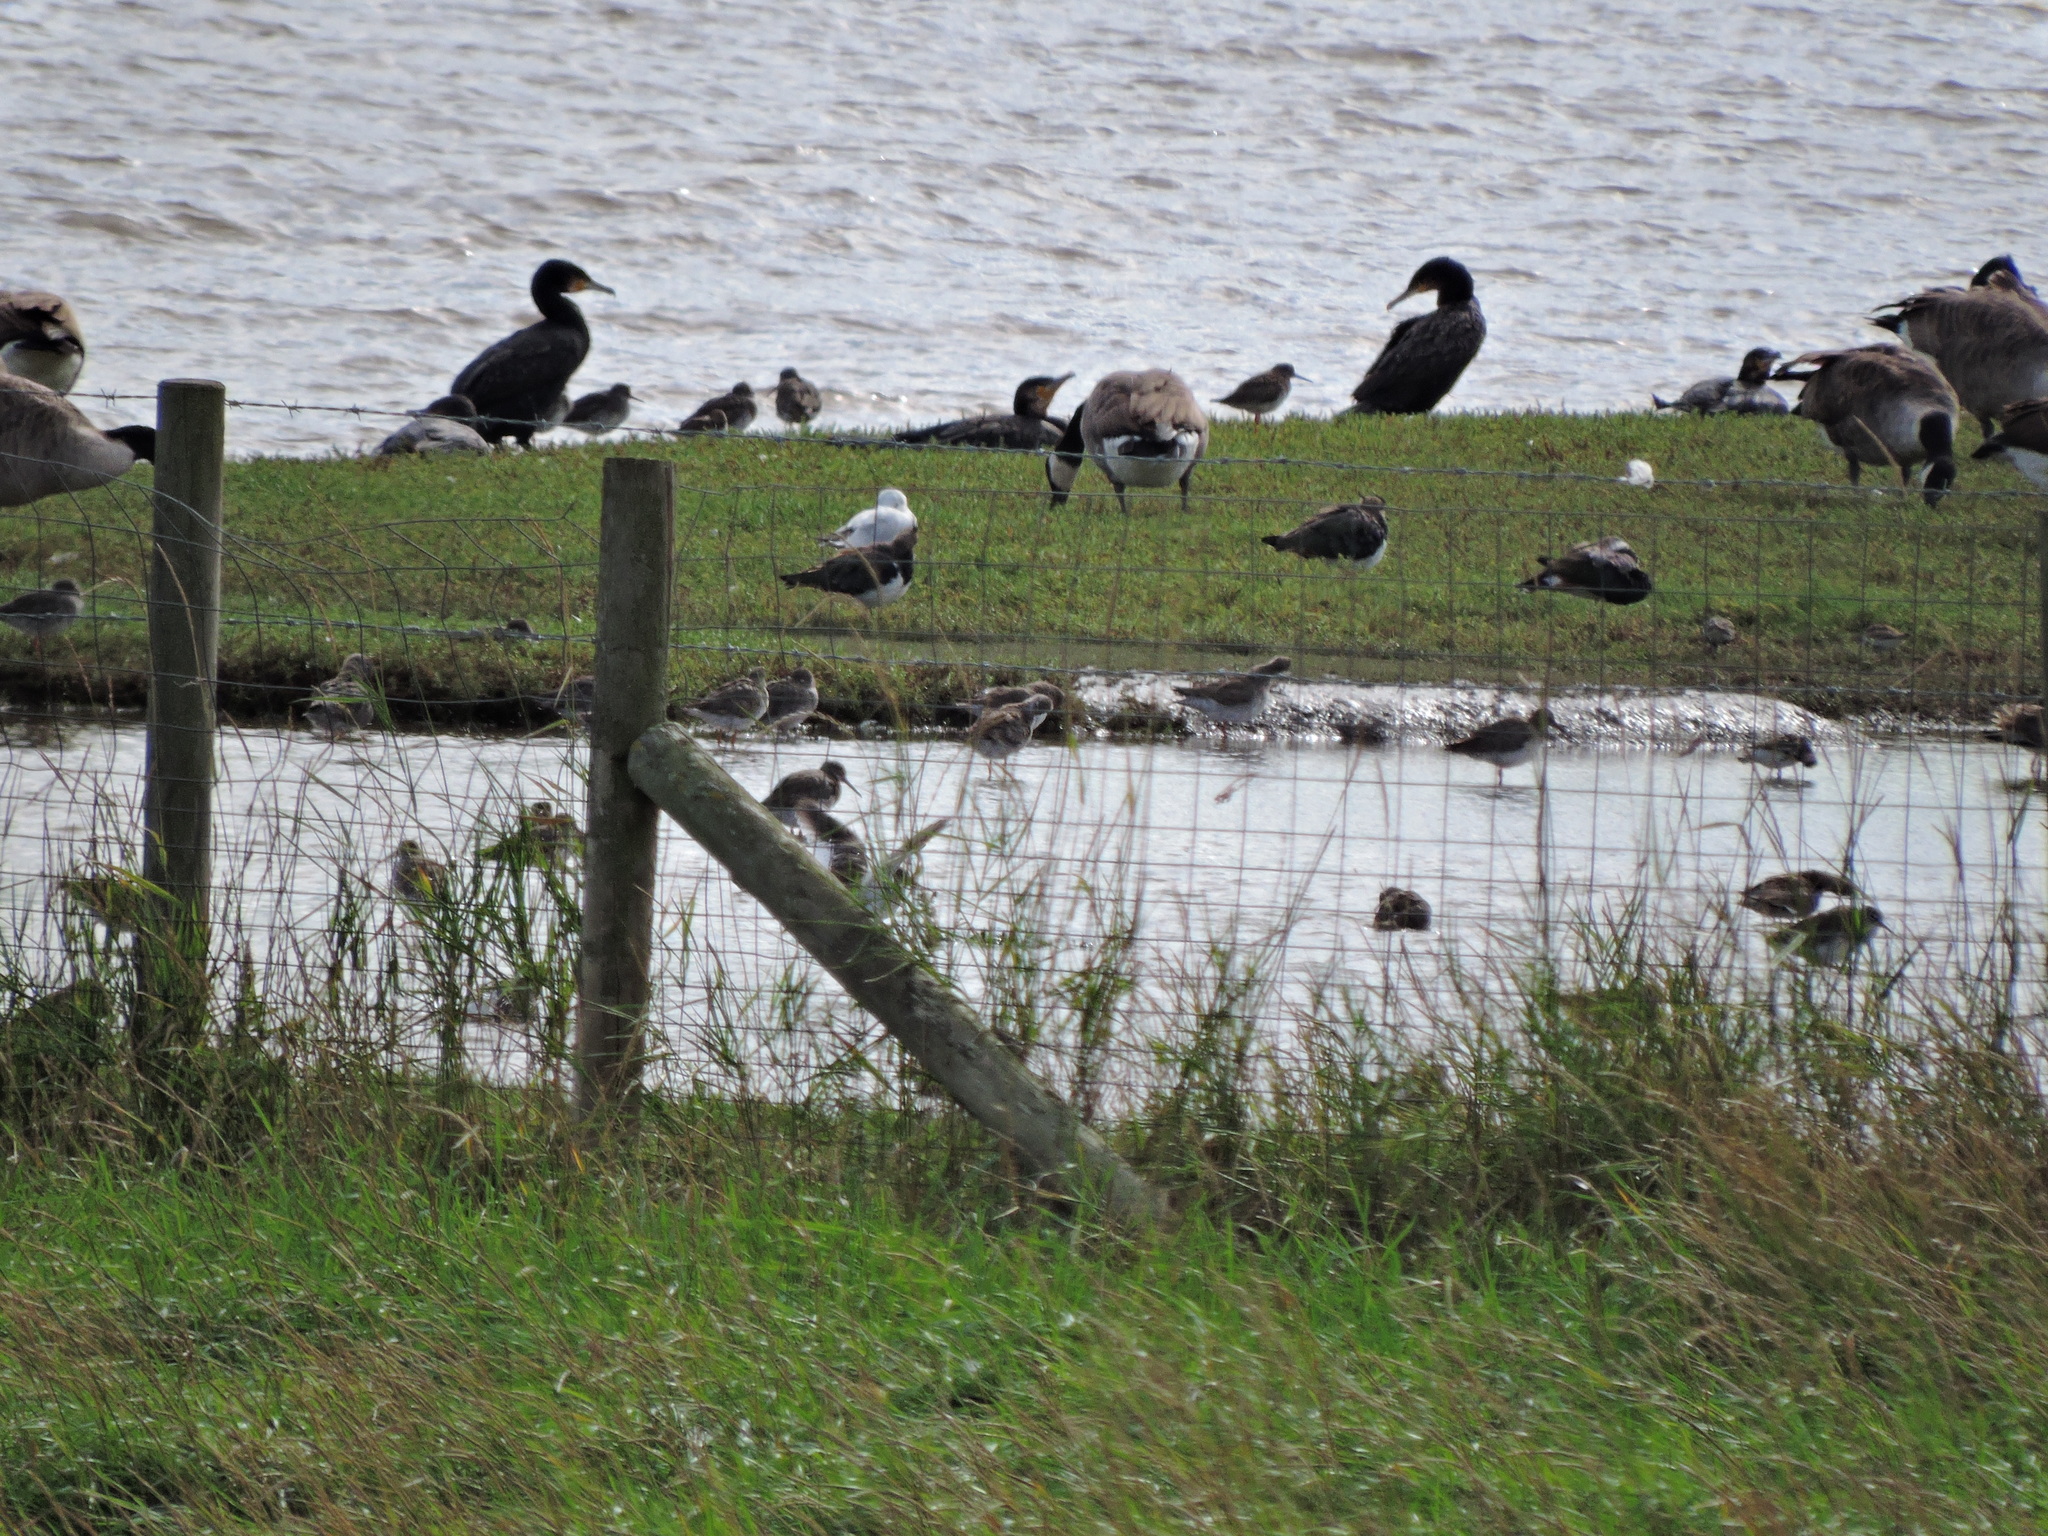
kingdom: Animalia
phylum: Chordata
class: Aves
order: Suliformes
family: Phalacrocoracidae
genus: Phalacrocorax
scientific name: Phalacrocorax carbo
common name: Great cormorant
